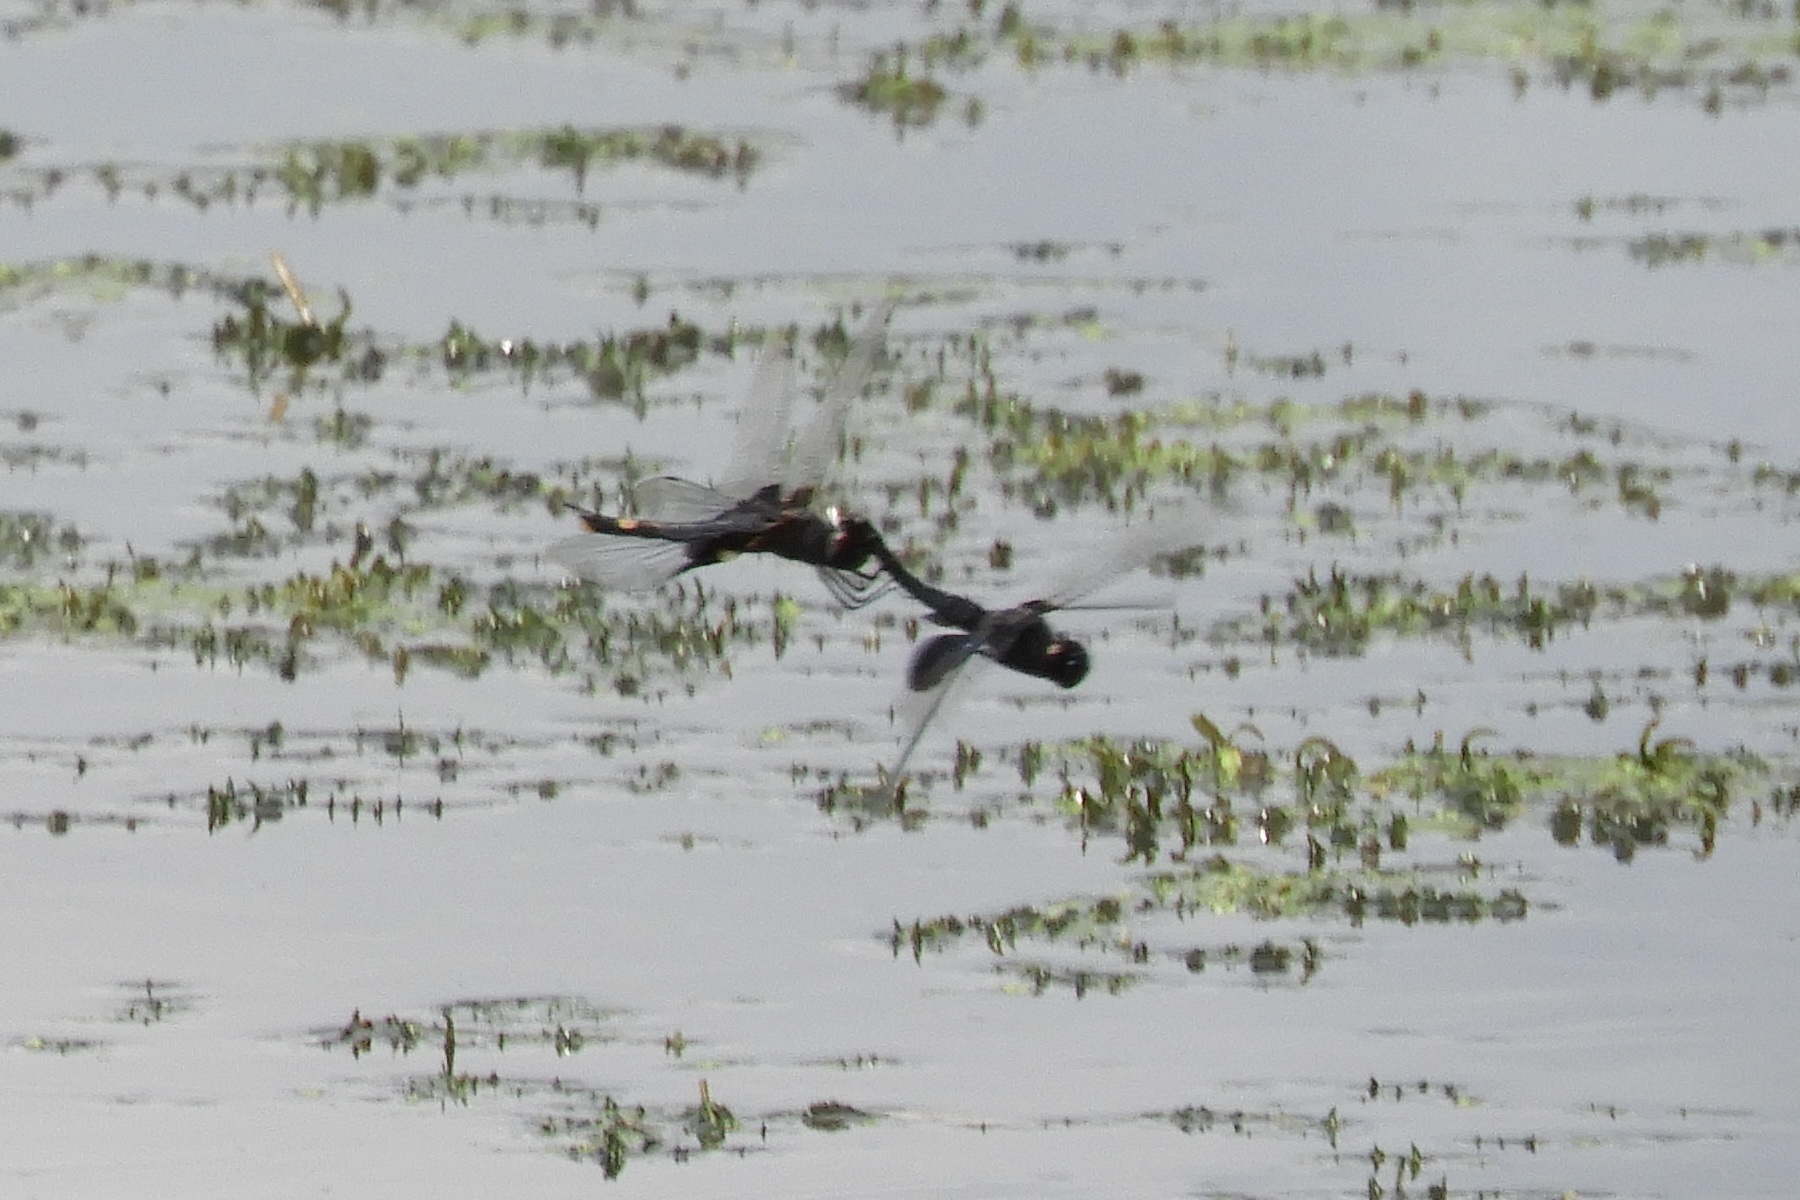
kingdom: Animalia
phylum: Arthropoda
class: Insecta
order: Odonata
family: Libellulidae
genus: Tramea
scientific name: Tramea lacerata
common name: Black saddlebags
